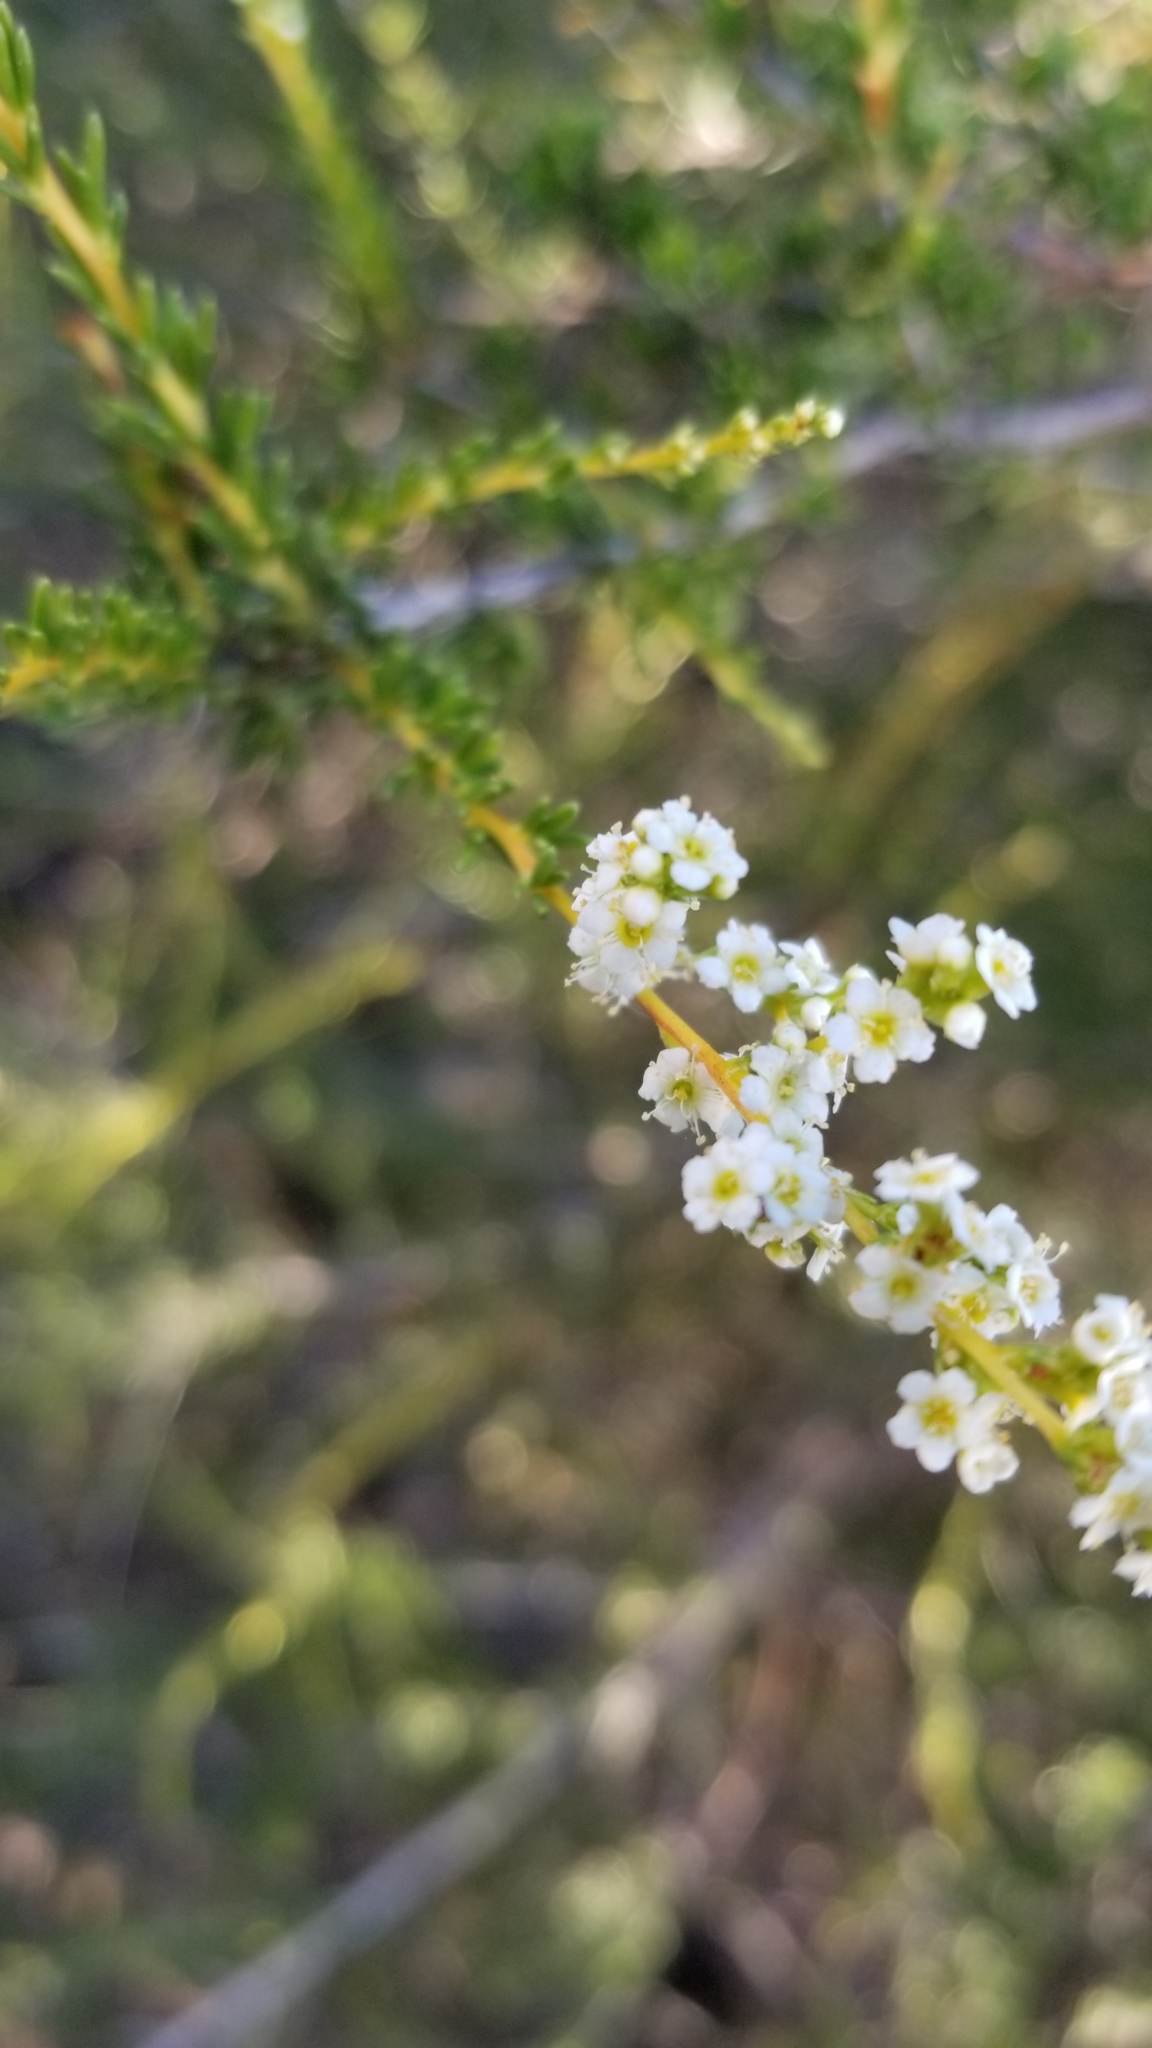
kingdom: Plantae
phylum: Tracheophyta
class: Magnoliopsida
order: Rosales
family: Rosaceae
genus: Adenostoma
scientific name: Adenostoma fasciculatum
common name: Chamise
